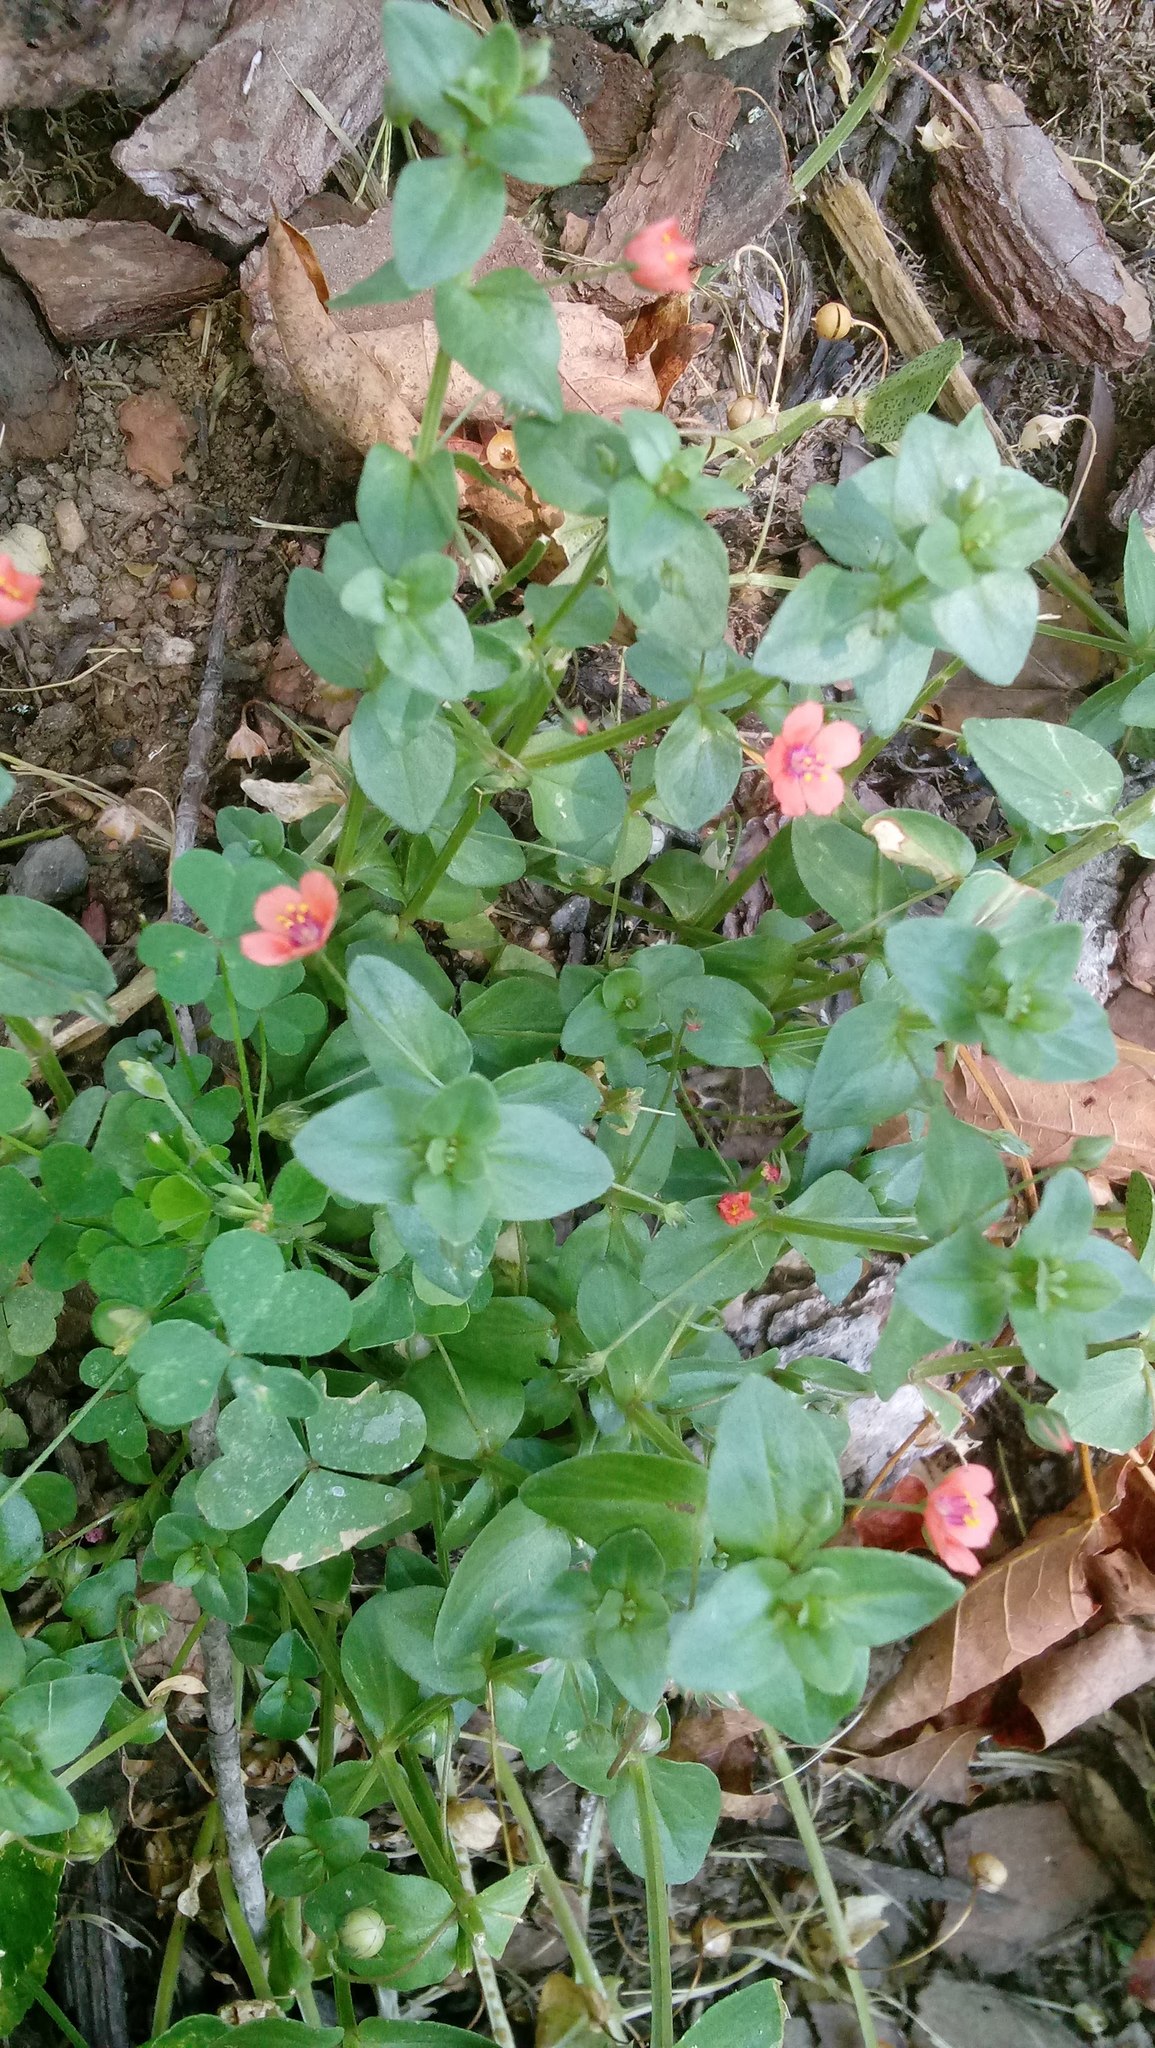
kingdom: Plantae
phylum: Tracheophyta
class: Magnoliopsida
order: Ericales
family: Primulaceae
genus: Lysimachia
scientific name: Lysimachia arvensis
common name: Scarlet pimpernel
